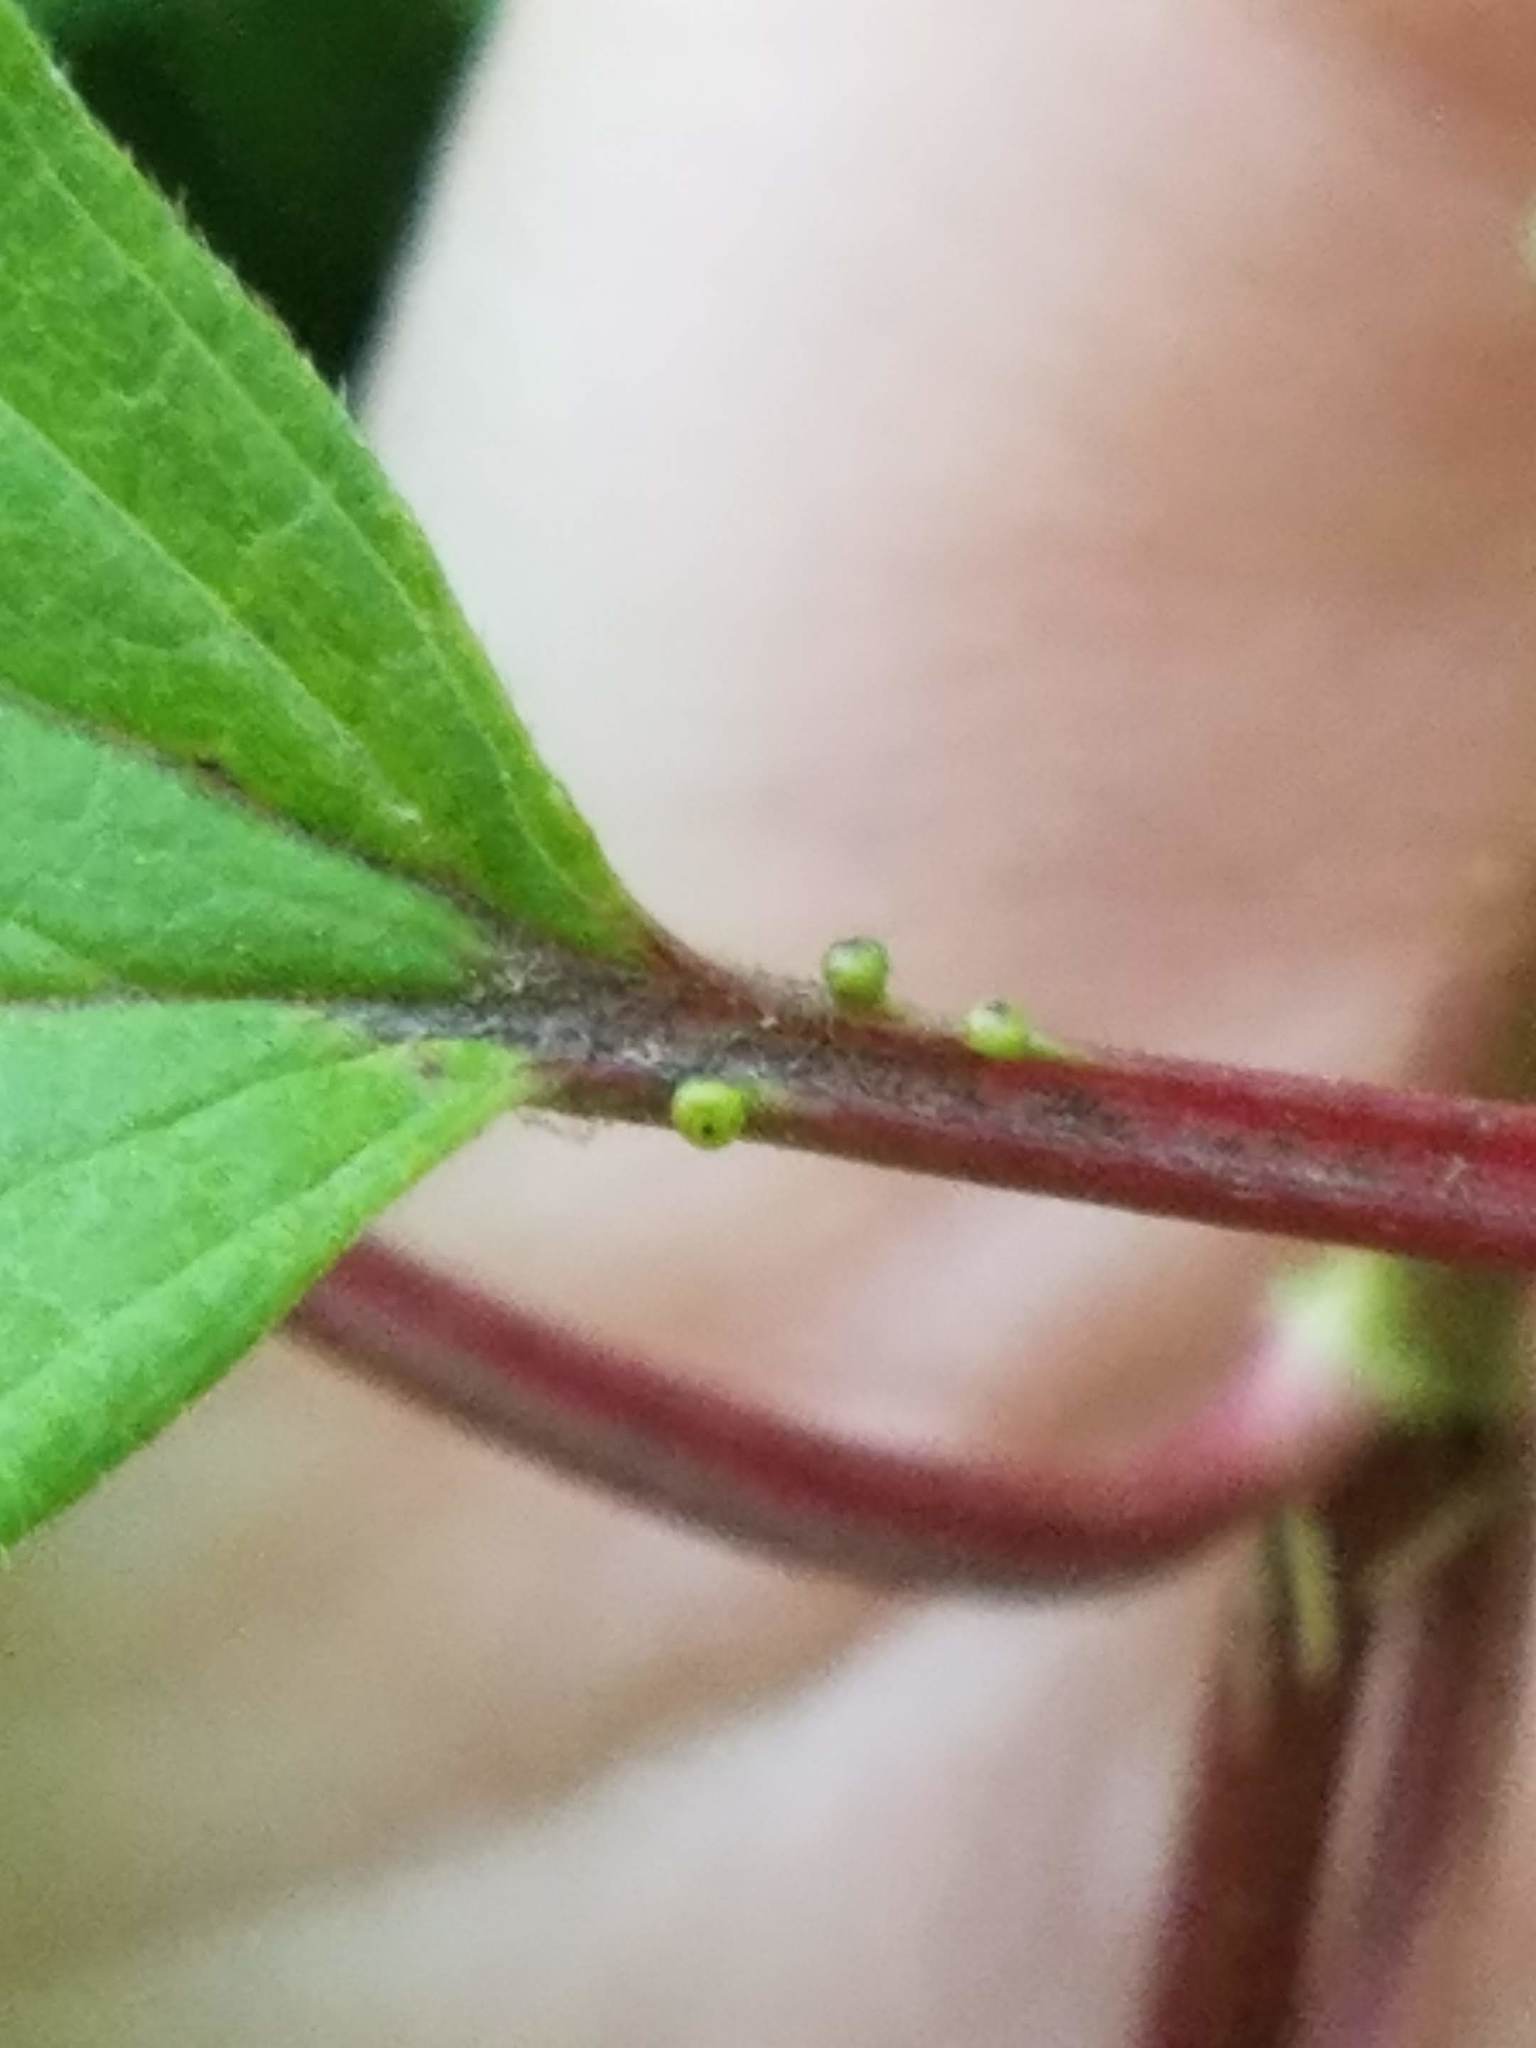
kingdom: Plantae
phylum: Tracheophyta
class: Magnoliopsida
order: Dipsacales
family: Viburnaceae
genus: Viburnum
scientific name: Viburnum trilobum
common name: American cranberrybush
